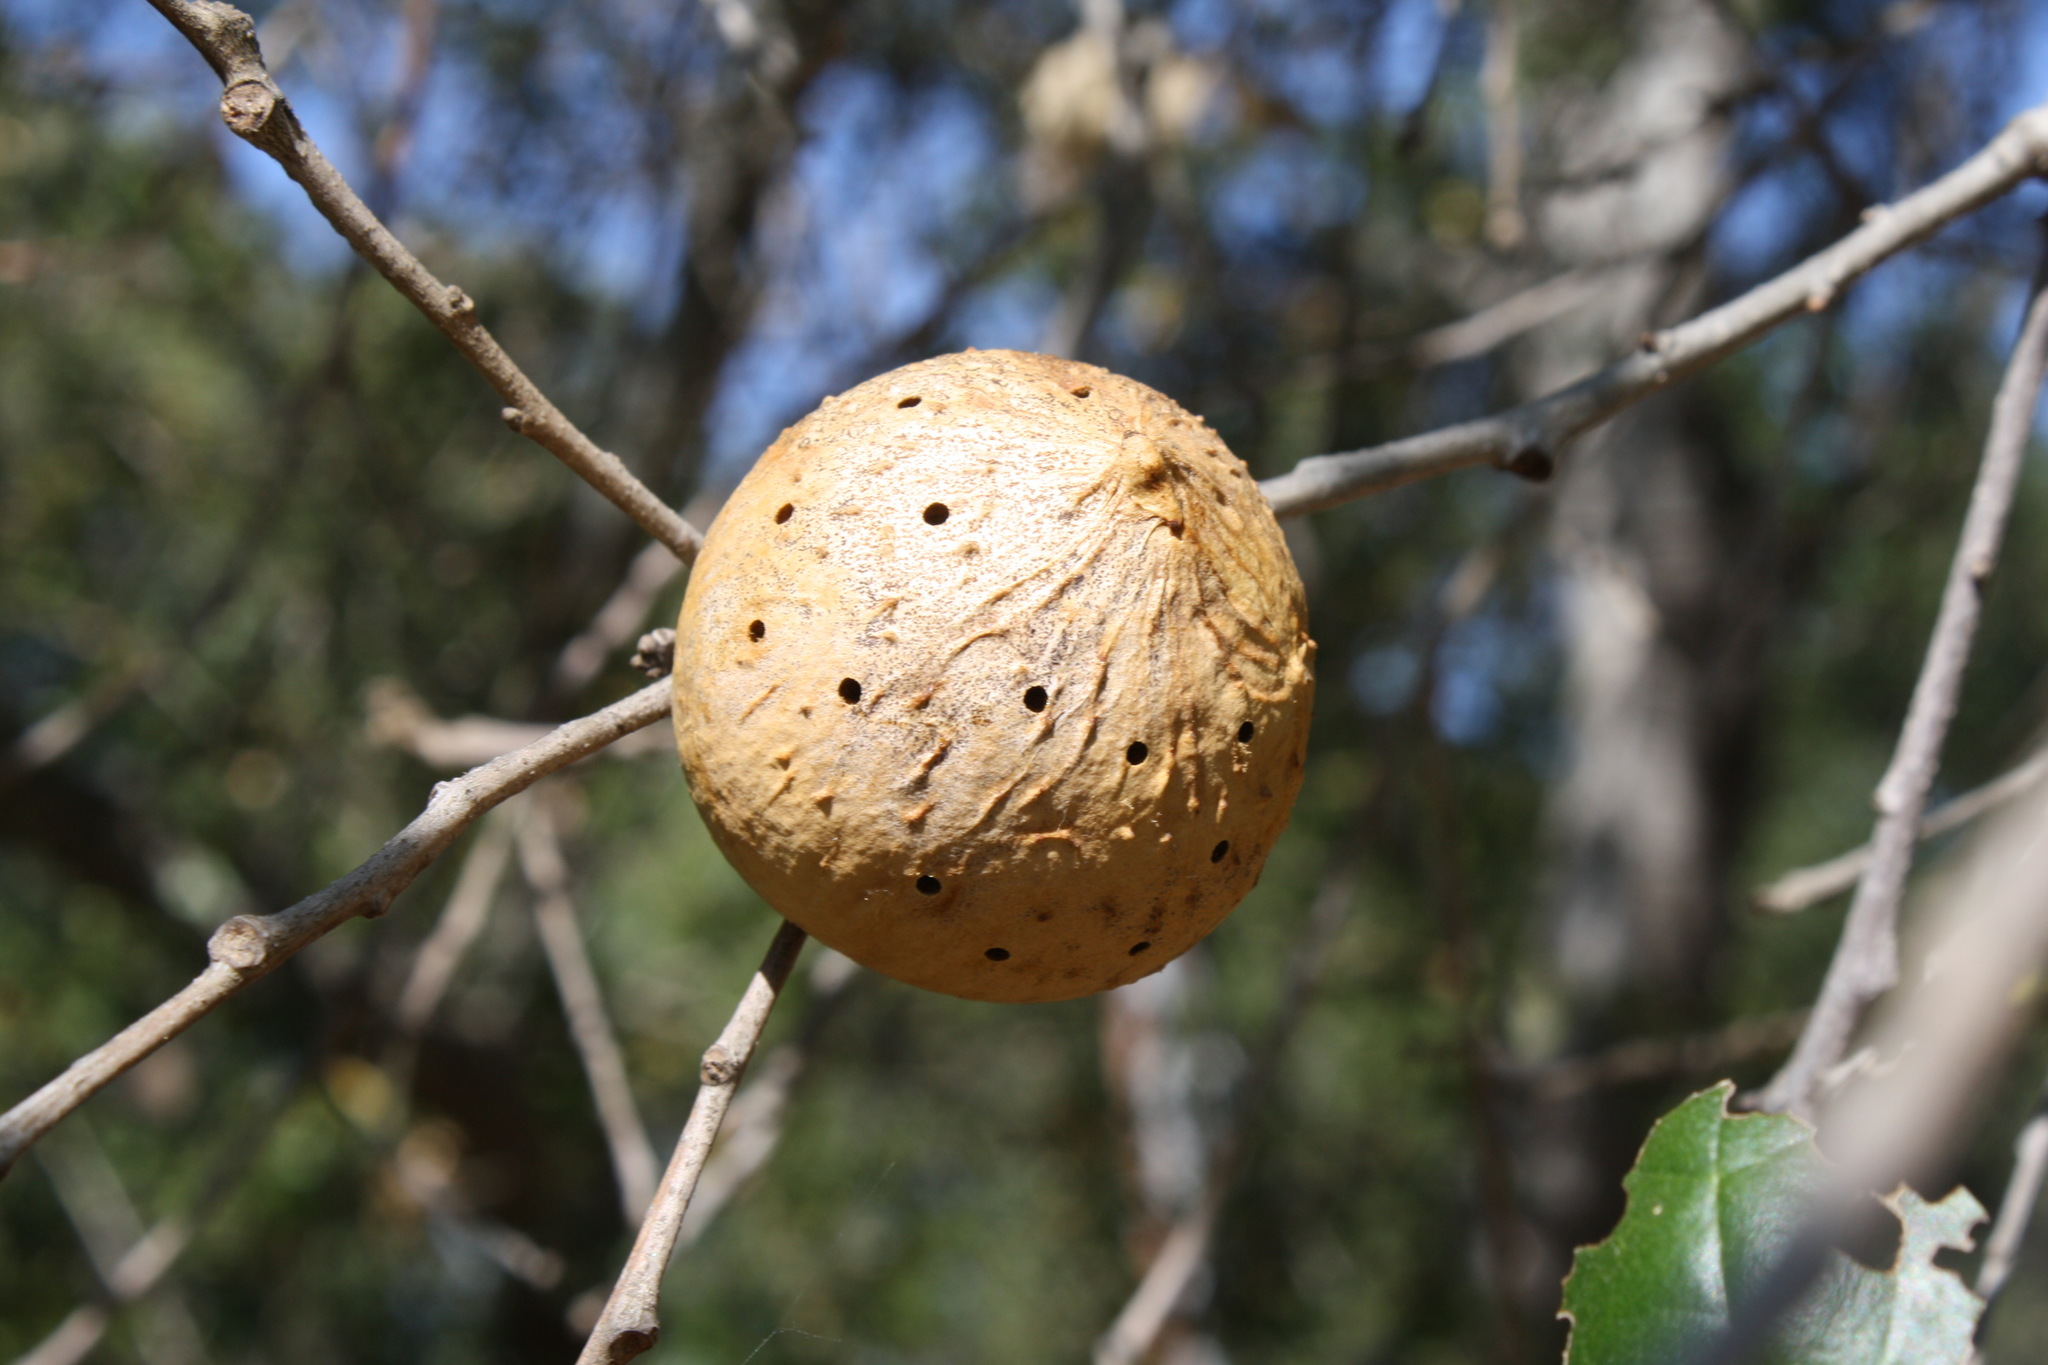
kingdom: Animalia
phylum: Arthropoda
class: Insecta
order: Hymenoptera
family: Cynipidae
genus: Amphibolips
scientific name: Amphibolips quercuspomiformis
